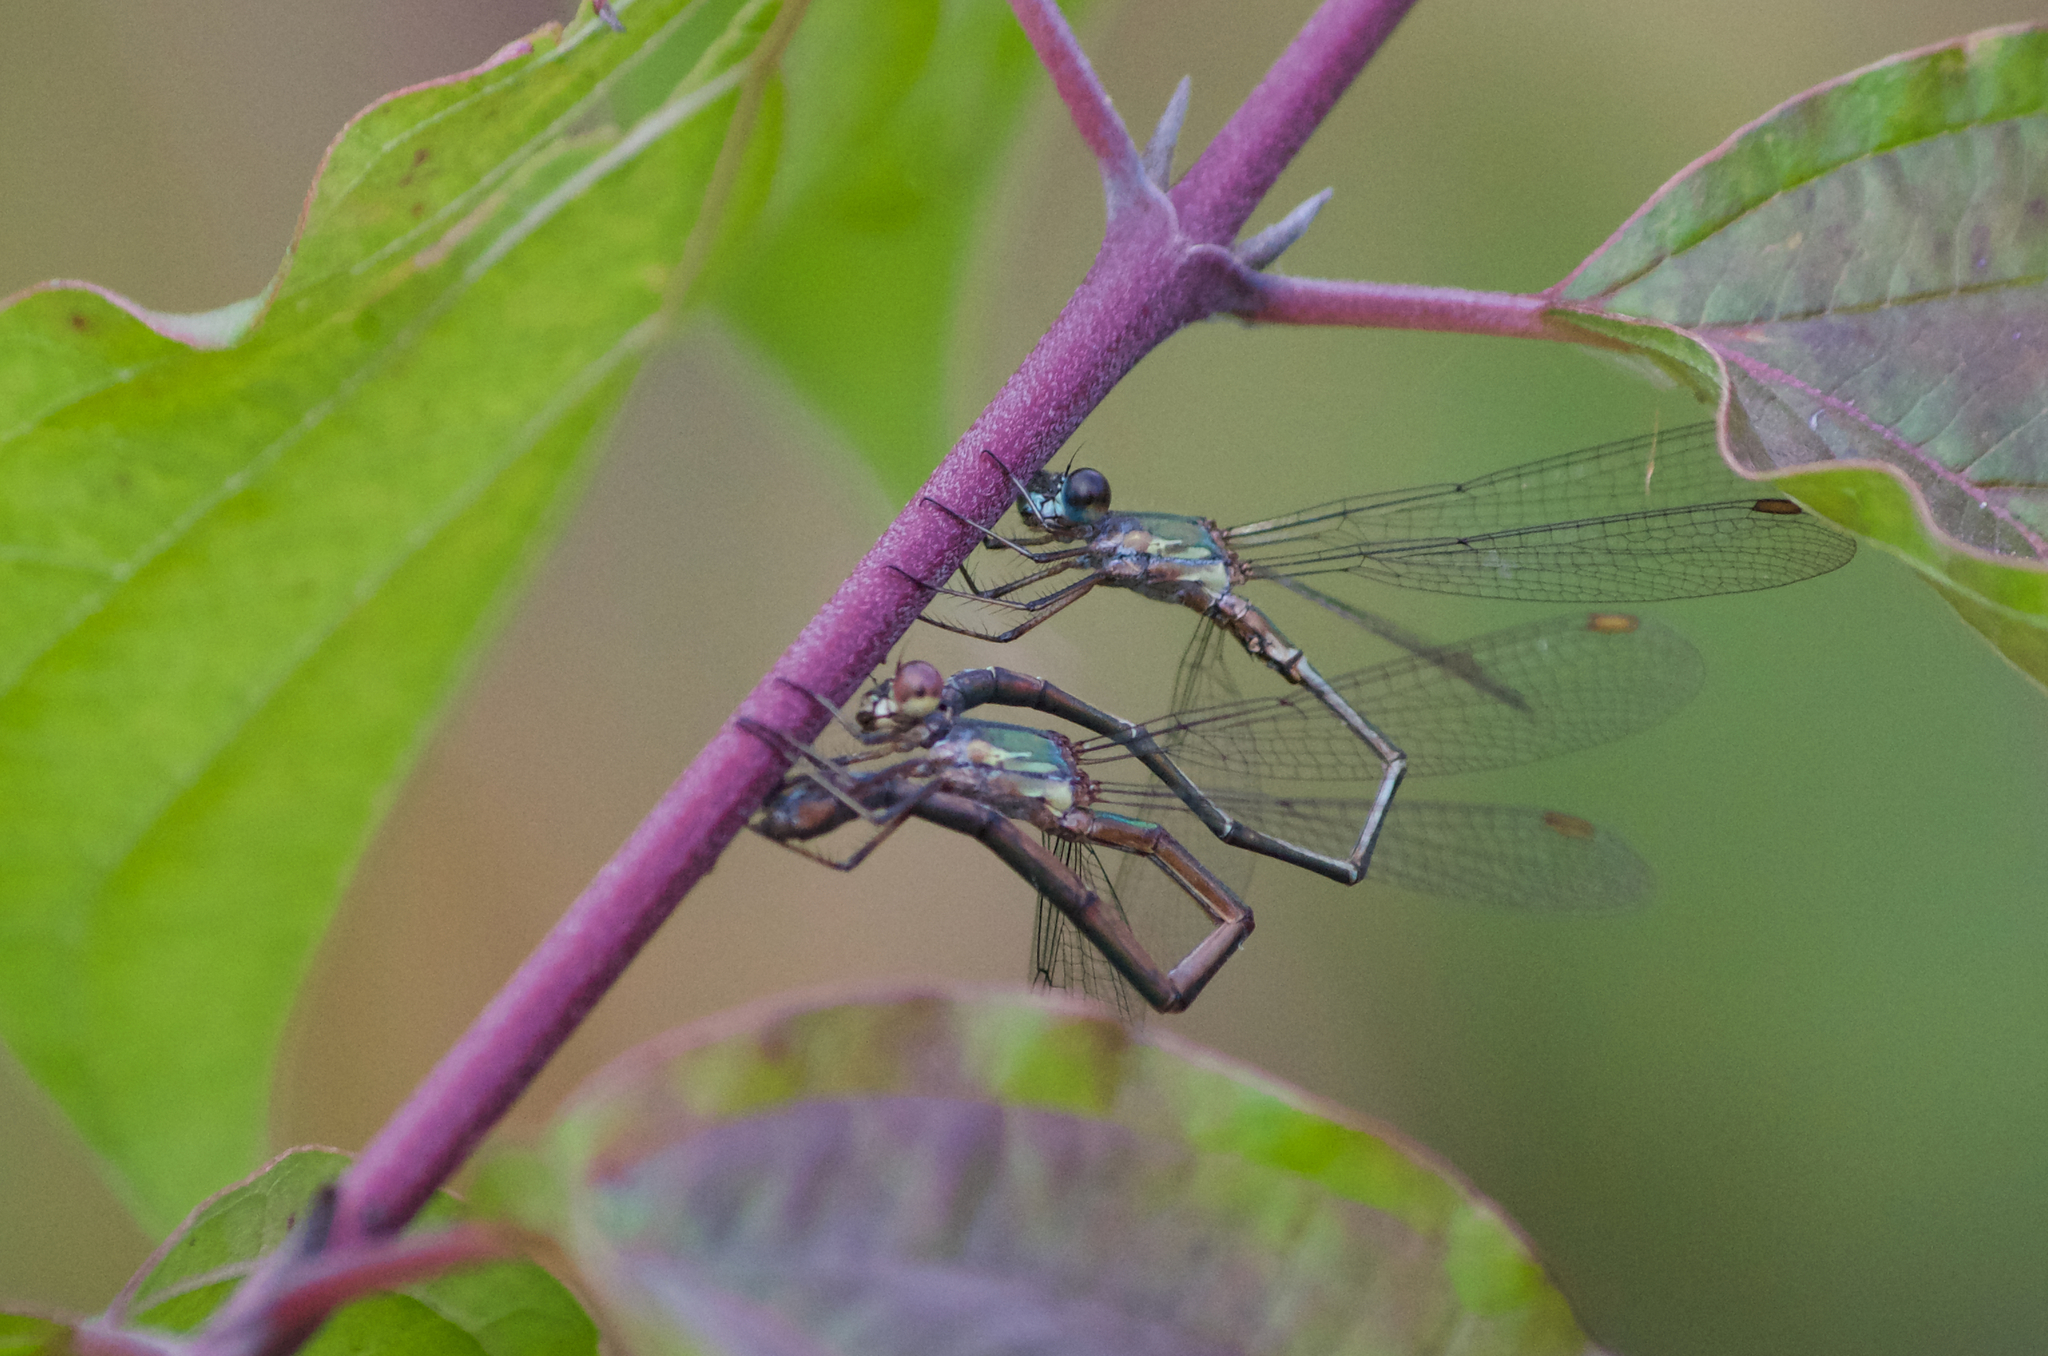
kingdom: Animalia
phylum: Arthropoda
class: Insecta
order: Odonata
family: Lestidae
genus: Chalcolestes
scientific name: Chalcolestes viridis
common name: Green emerald damselfly
